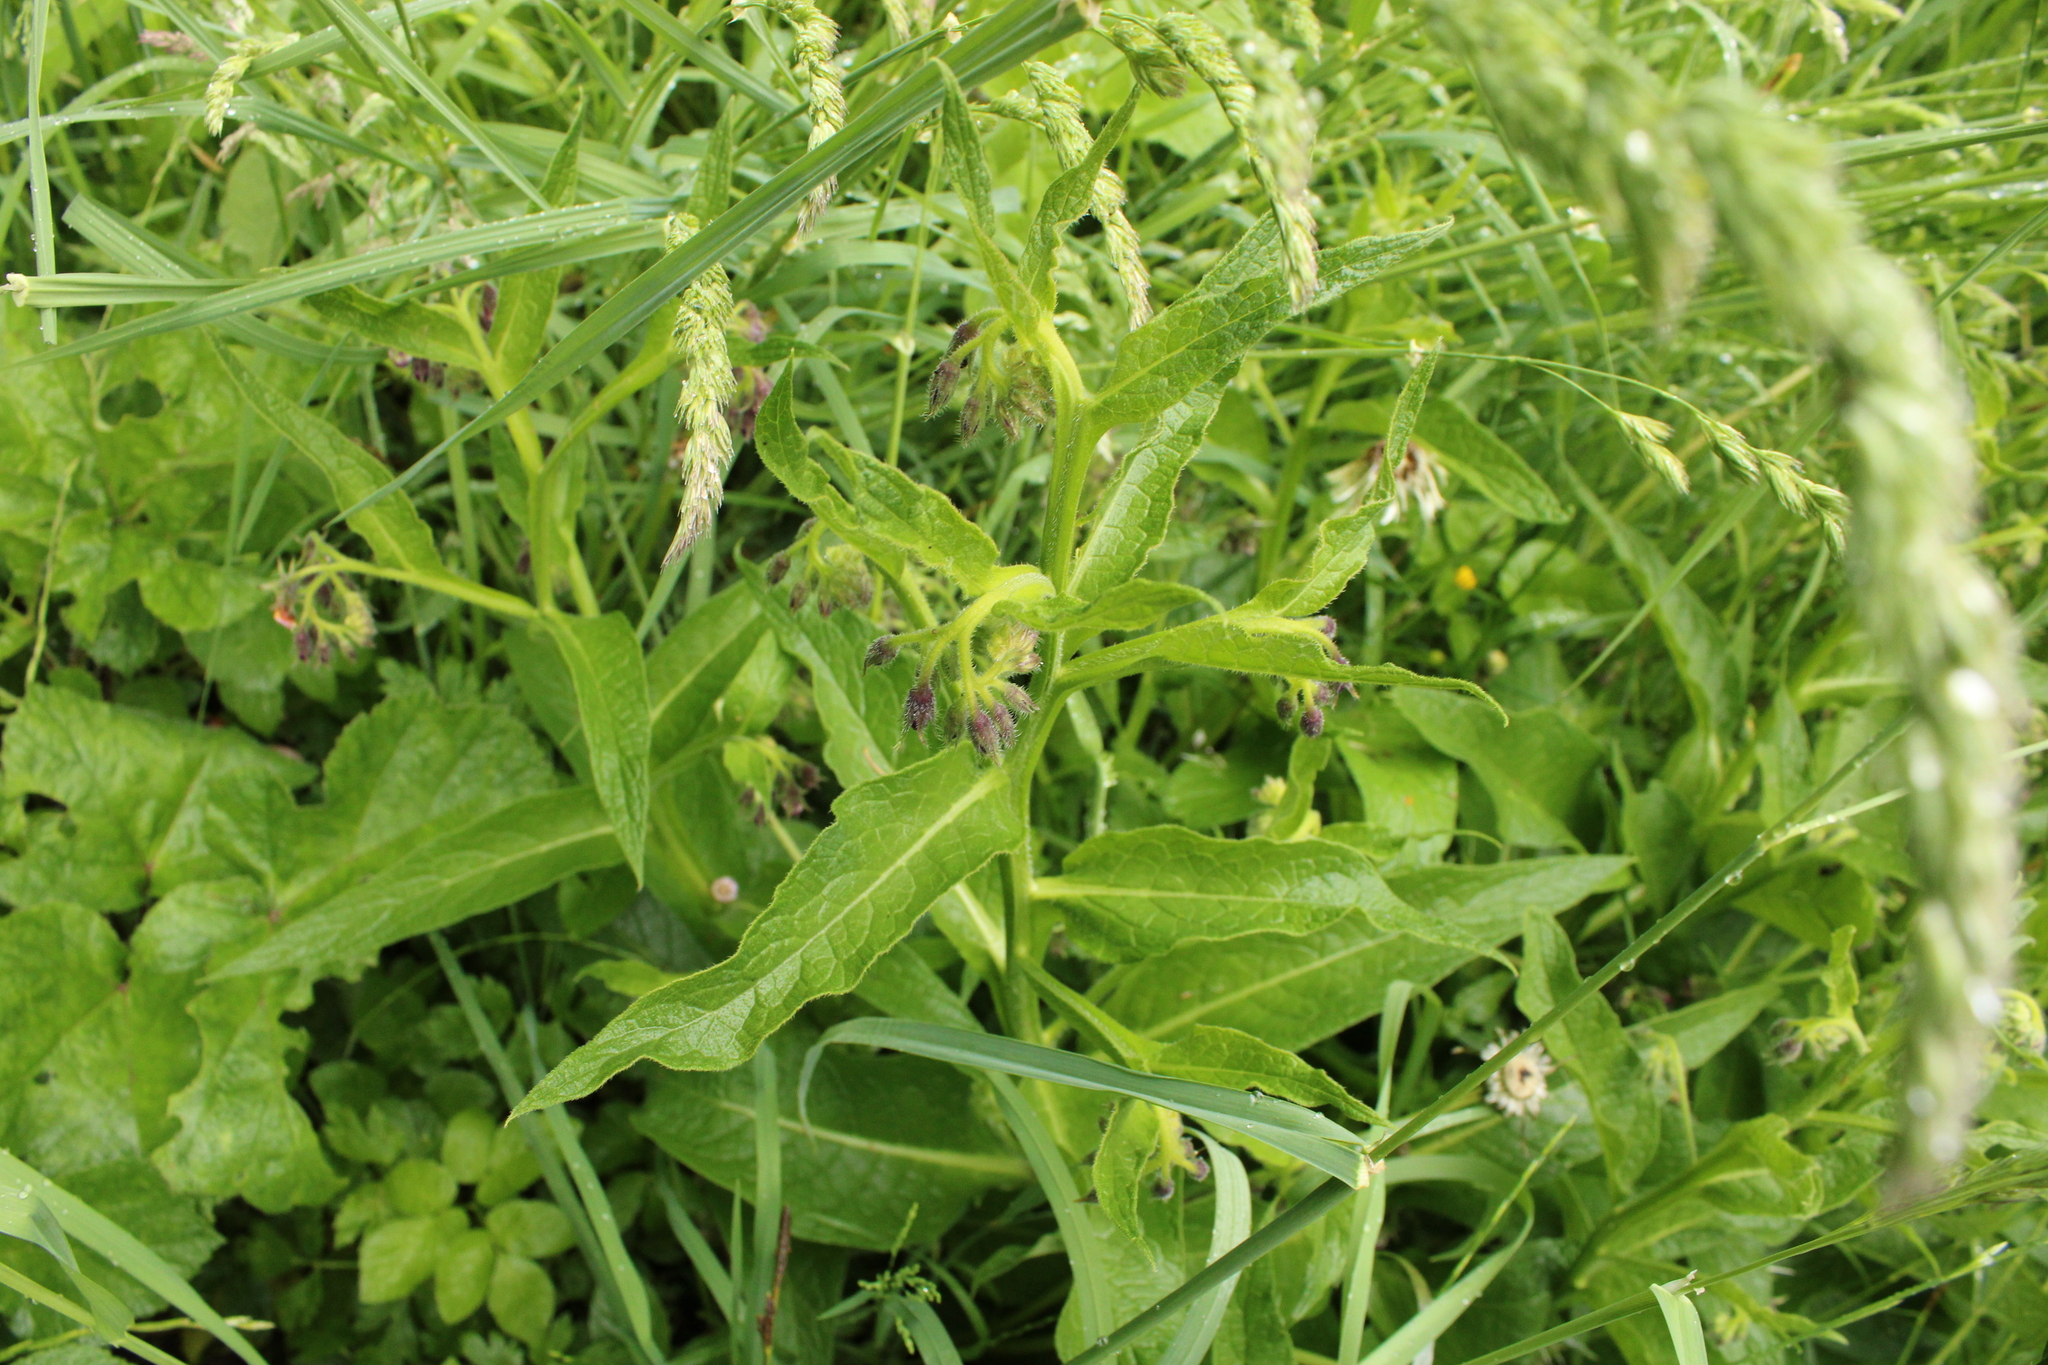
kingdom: Plantae
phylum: Tracheophyta
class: Magnoliopsida
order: Boraginales
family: Boraginaceae
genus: Symphytum
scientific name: Symphytum officinale
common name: Common comfrey
